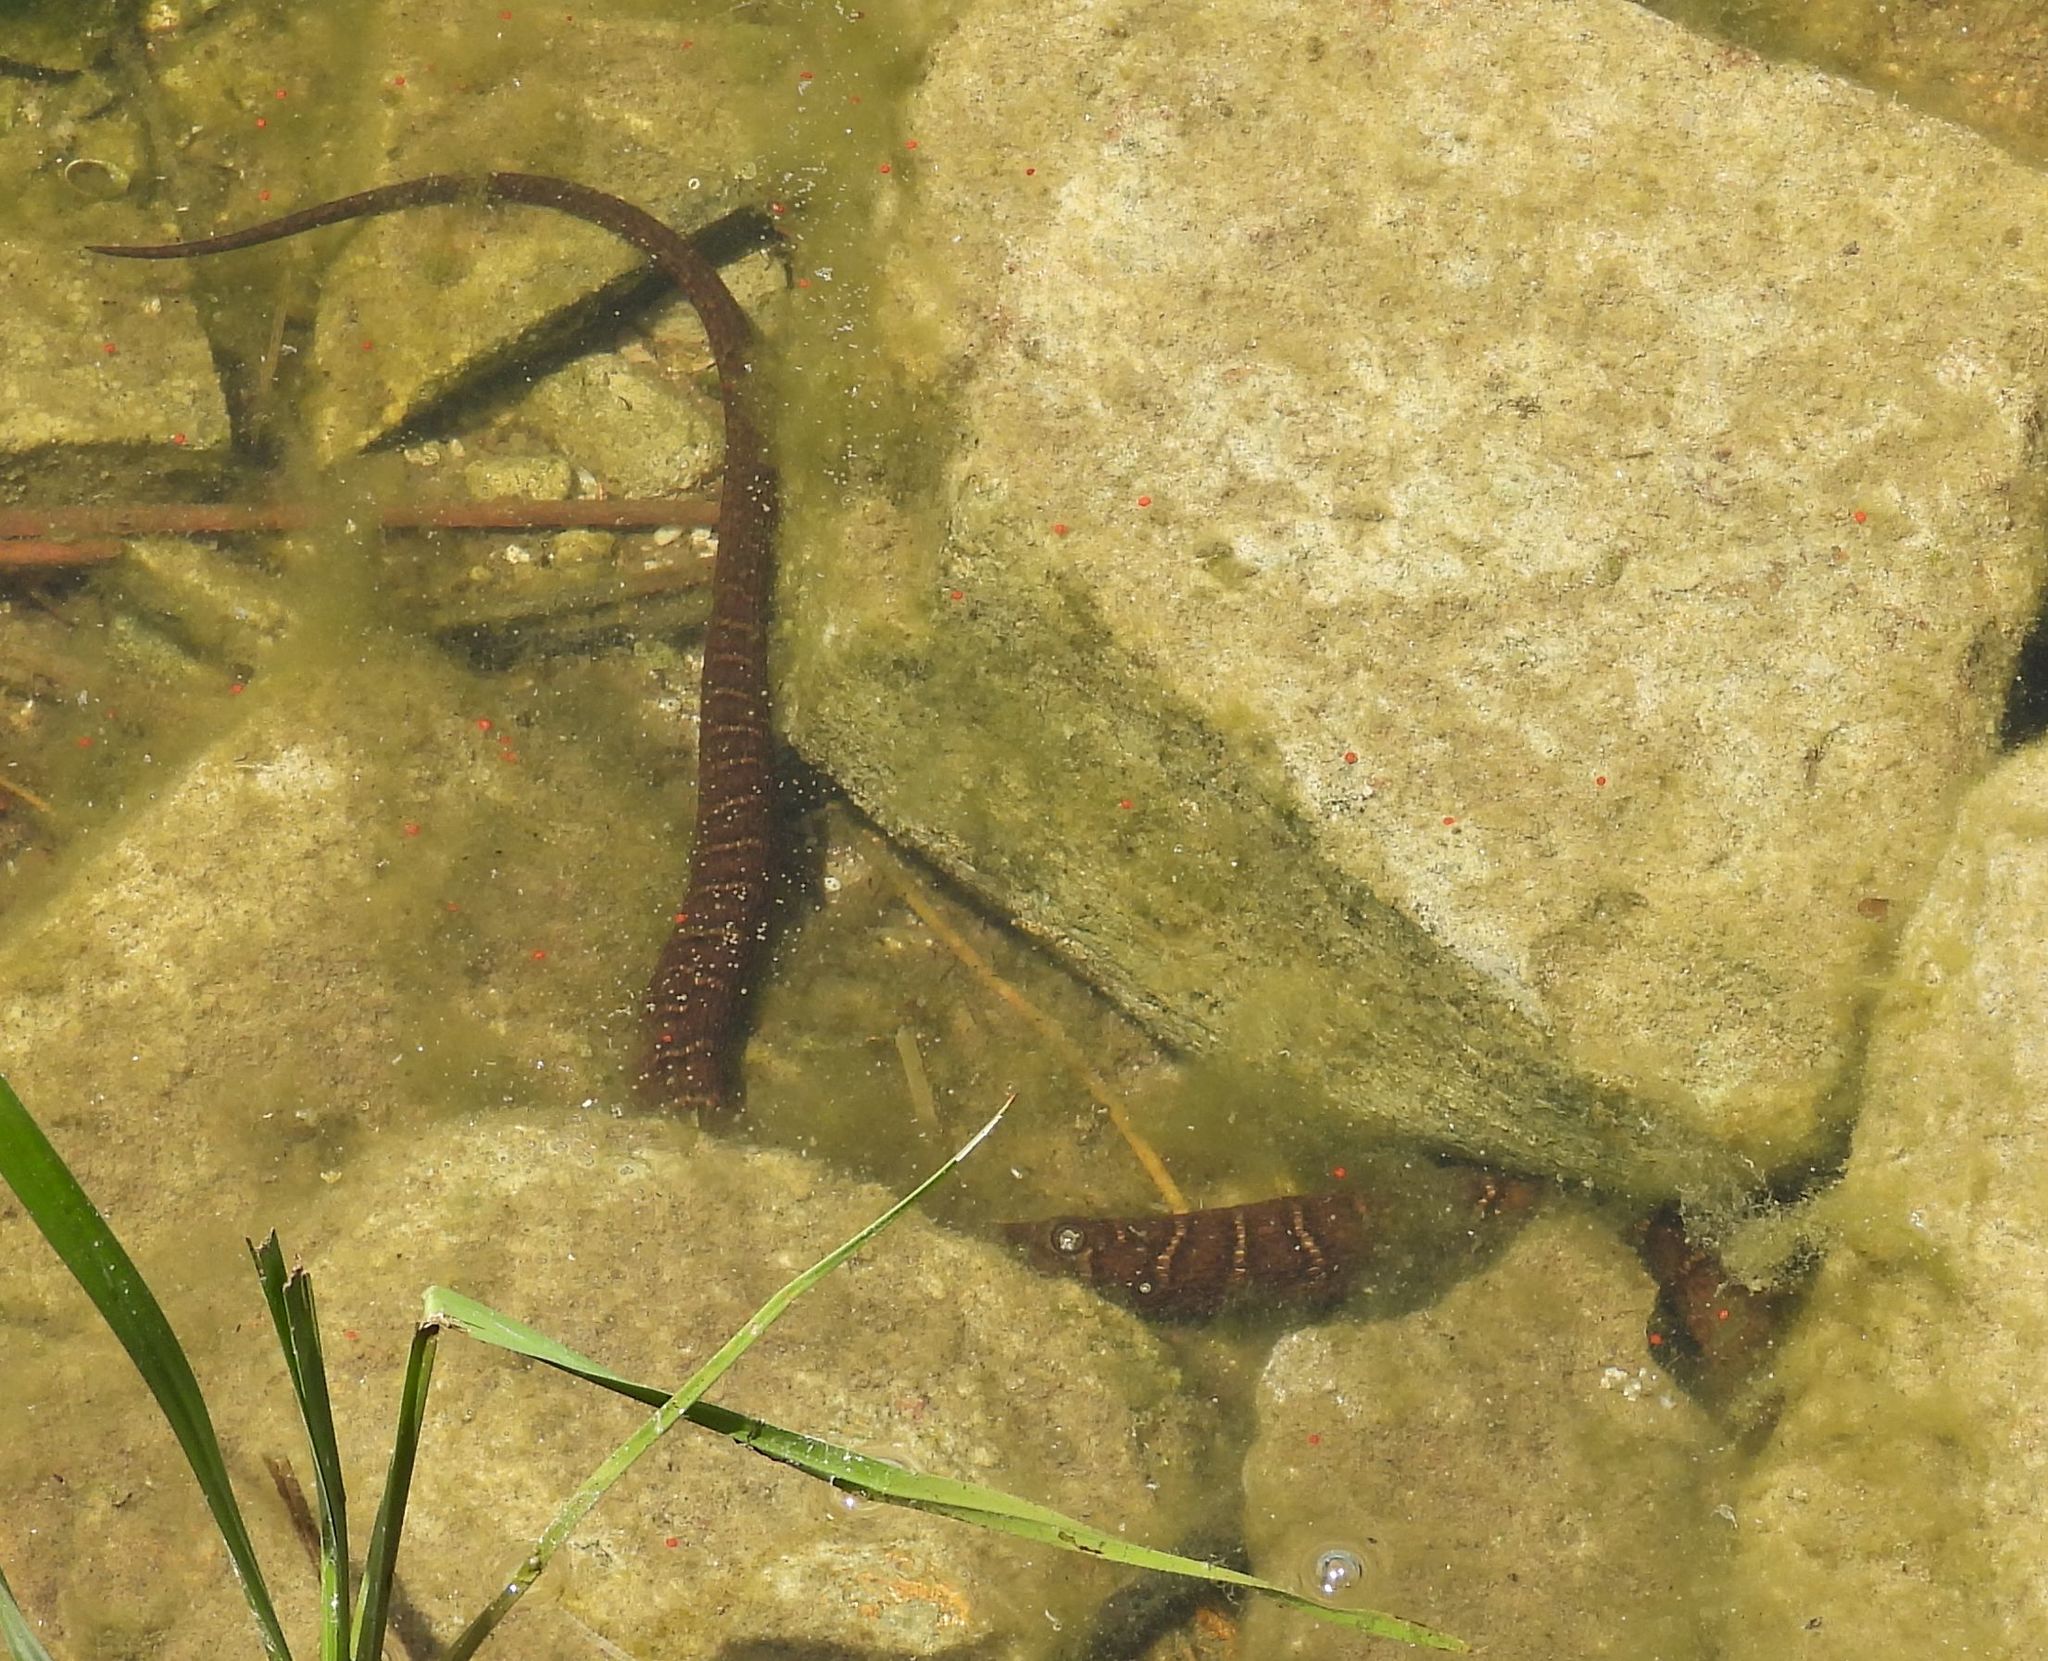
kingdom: Animalia
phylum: Chordata
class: Squamata
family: Colubridae
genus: Nerodia
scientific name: Nerodia sipedon
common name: Northern water snake
